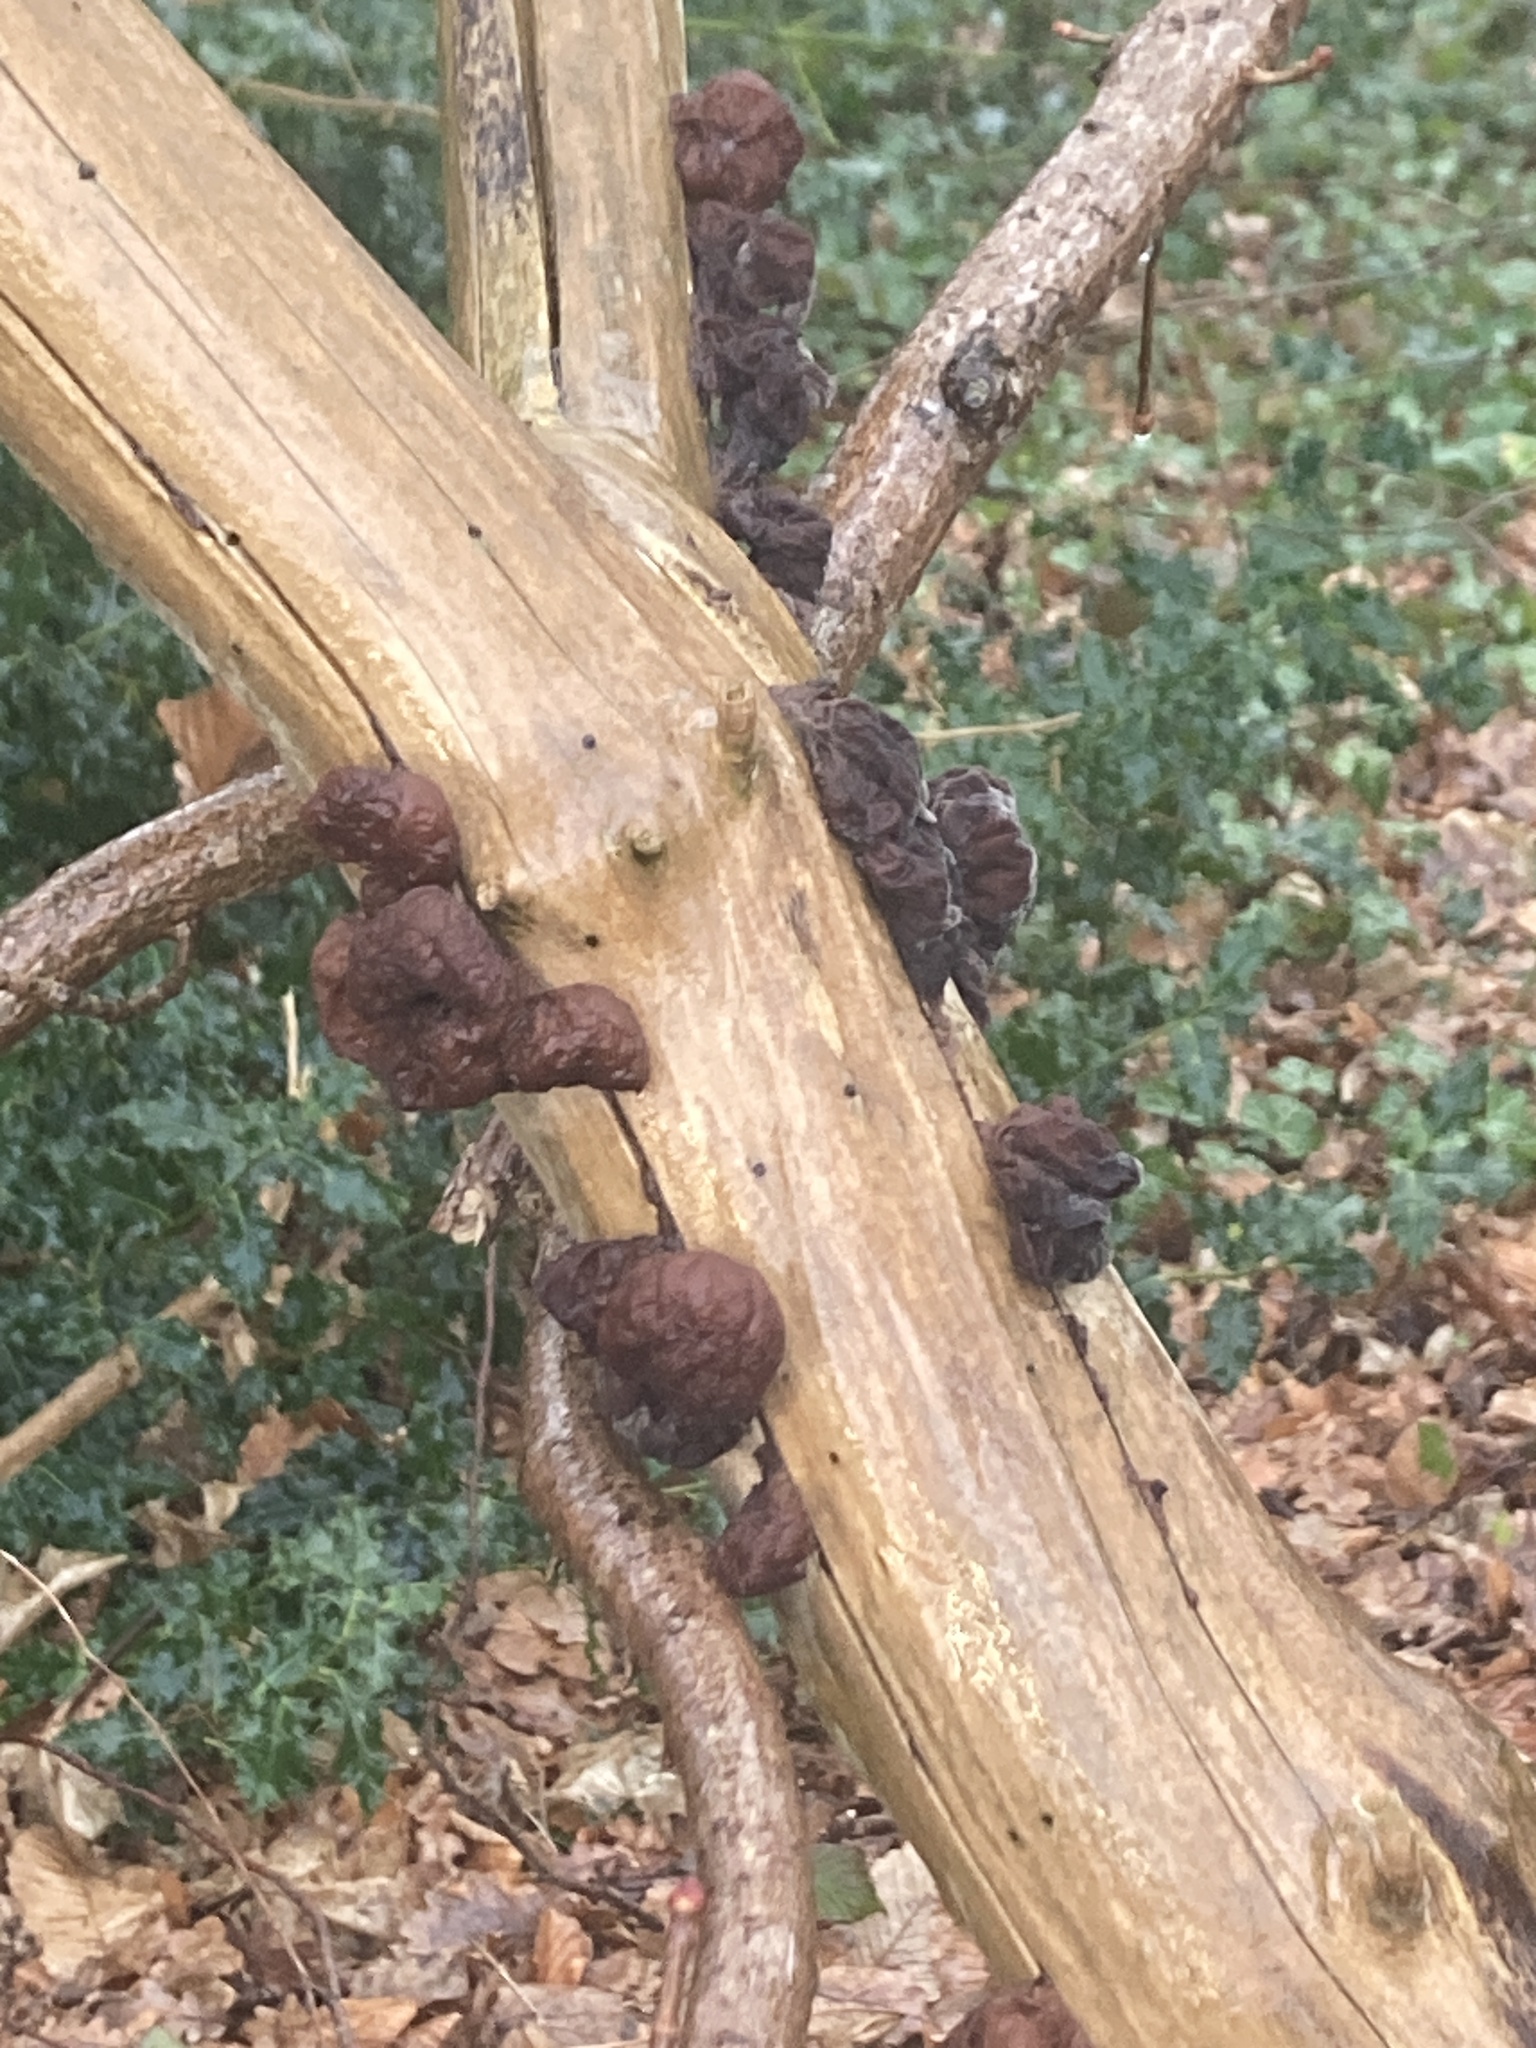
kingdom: Fungi
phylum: Basidiomycota
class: Agaricomycetes
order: Auriculariales
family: Auriculariaceae
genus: Auricularia
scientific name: Auricularia auricula-judae
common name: Jelly ear
